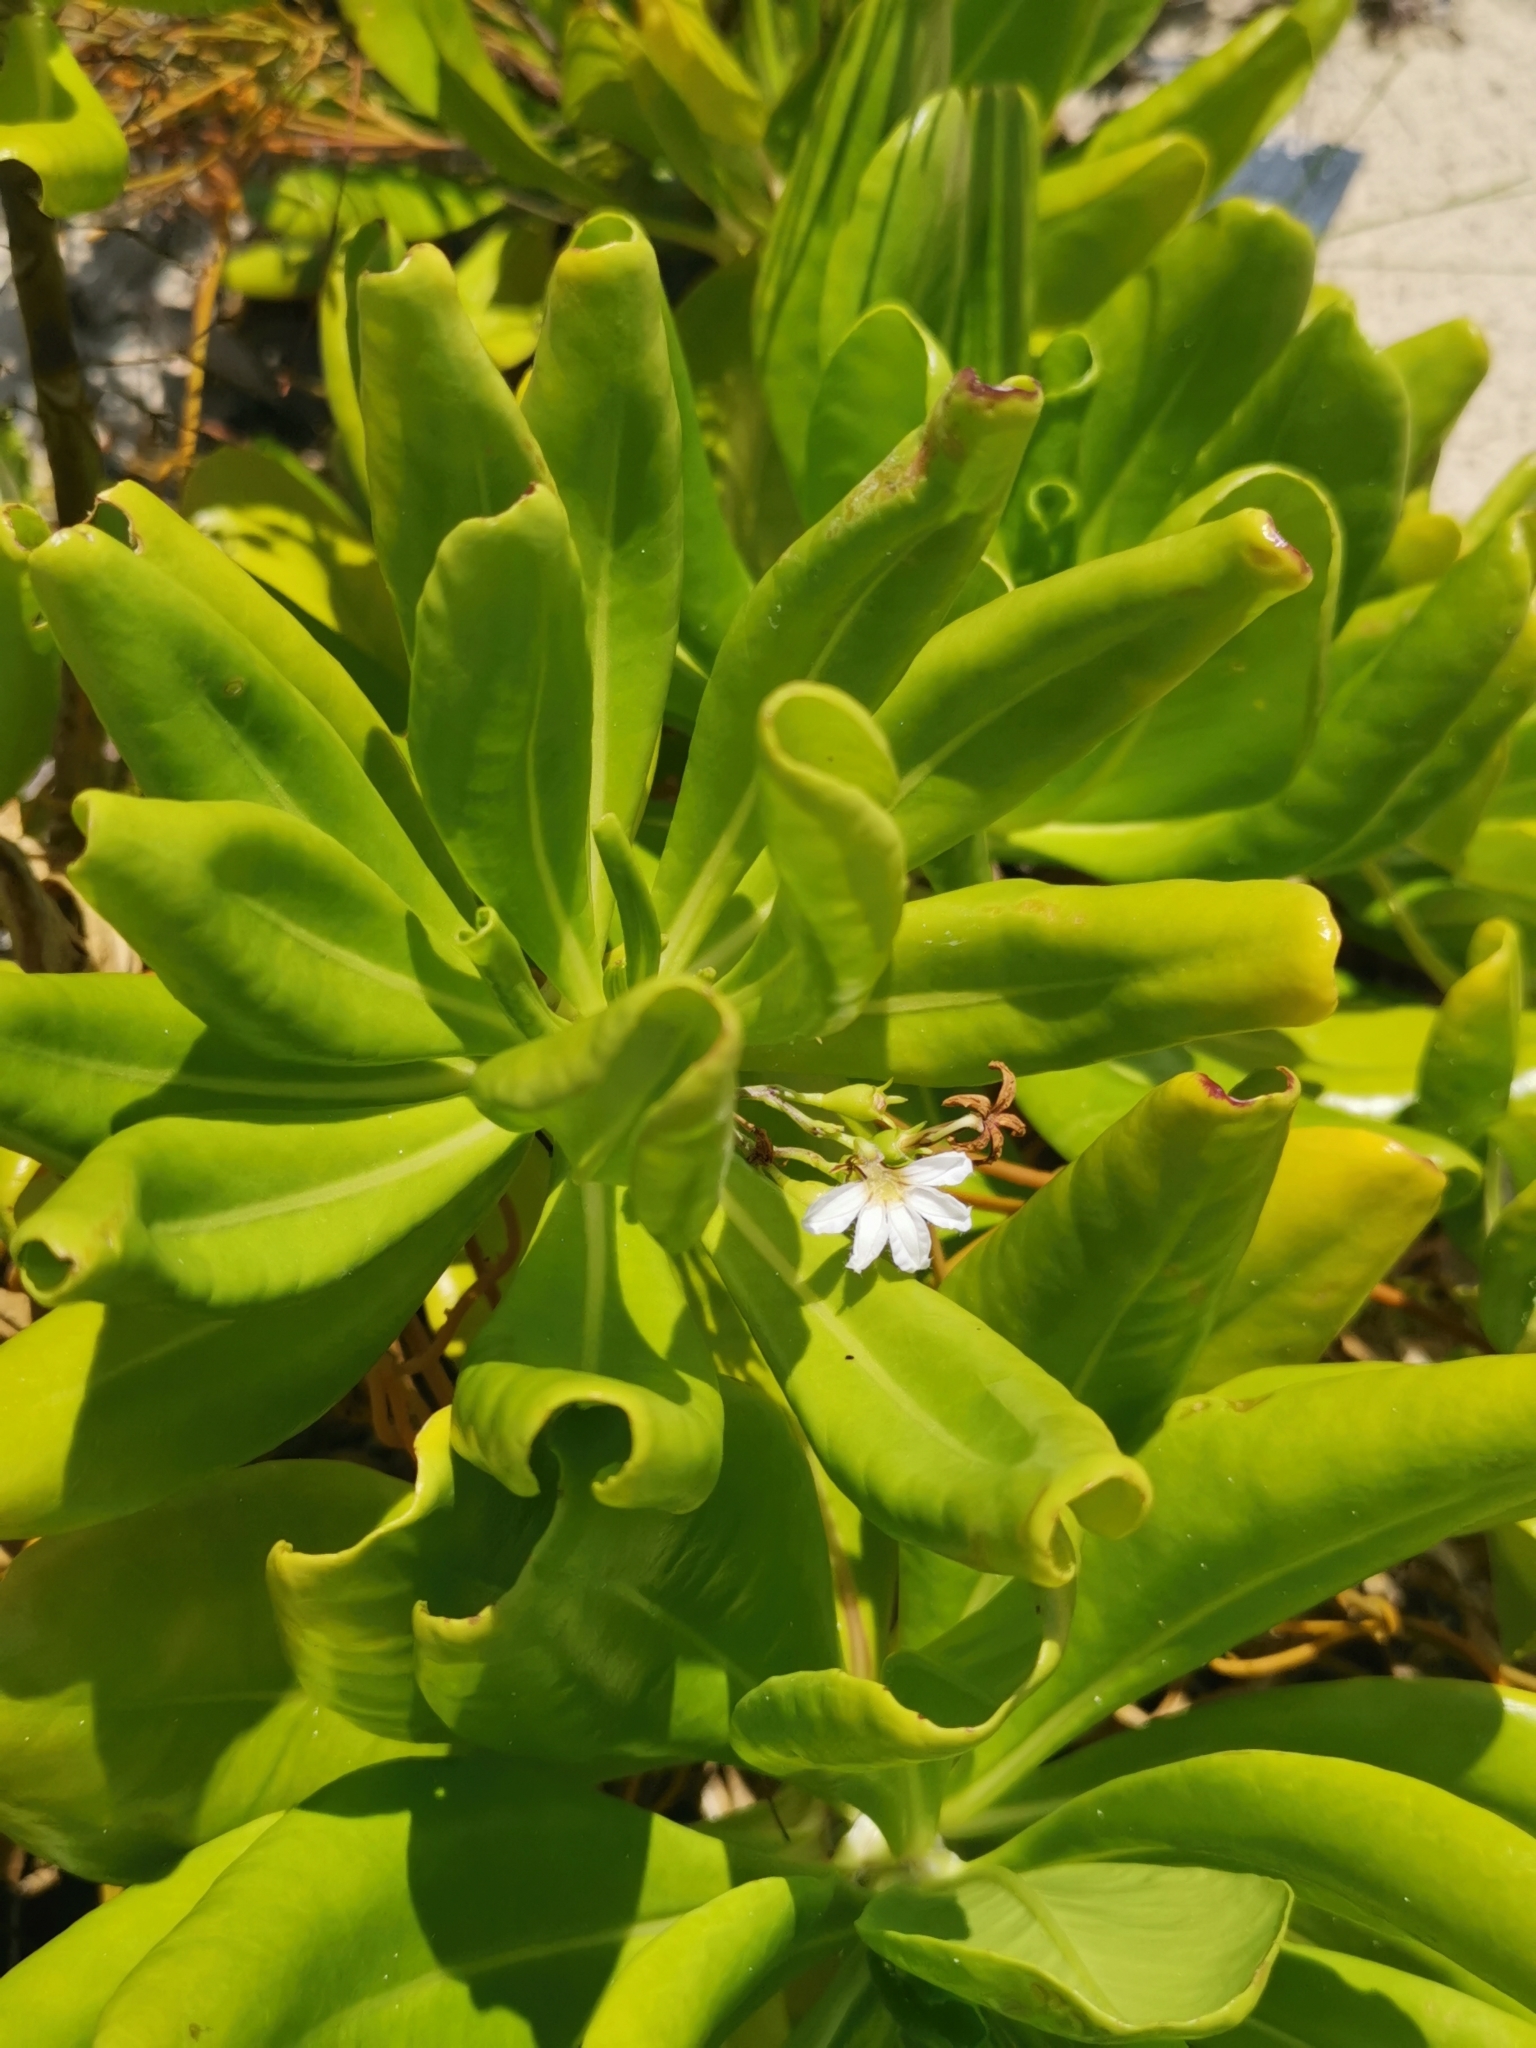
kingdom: Plantae
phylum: Tracheophyta
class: Magnoliopsida
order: Asterales
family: Goodeniaceae
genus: Scaevola
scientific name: Scaevola taccada
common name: Sea lettucetree
